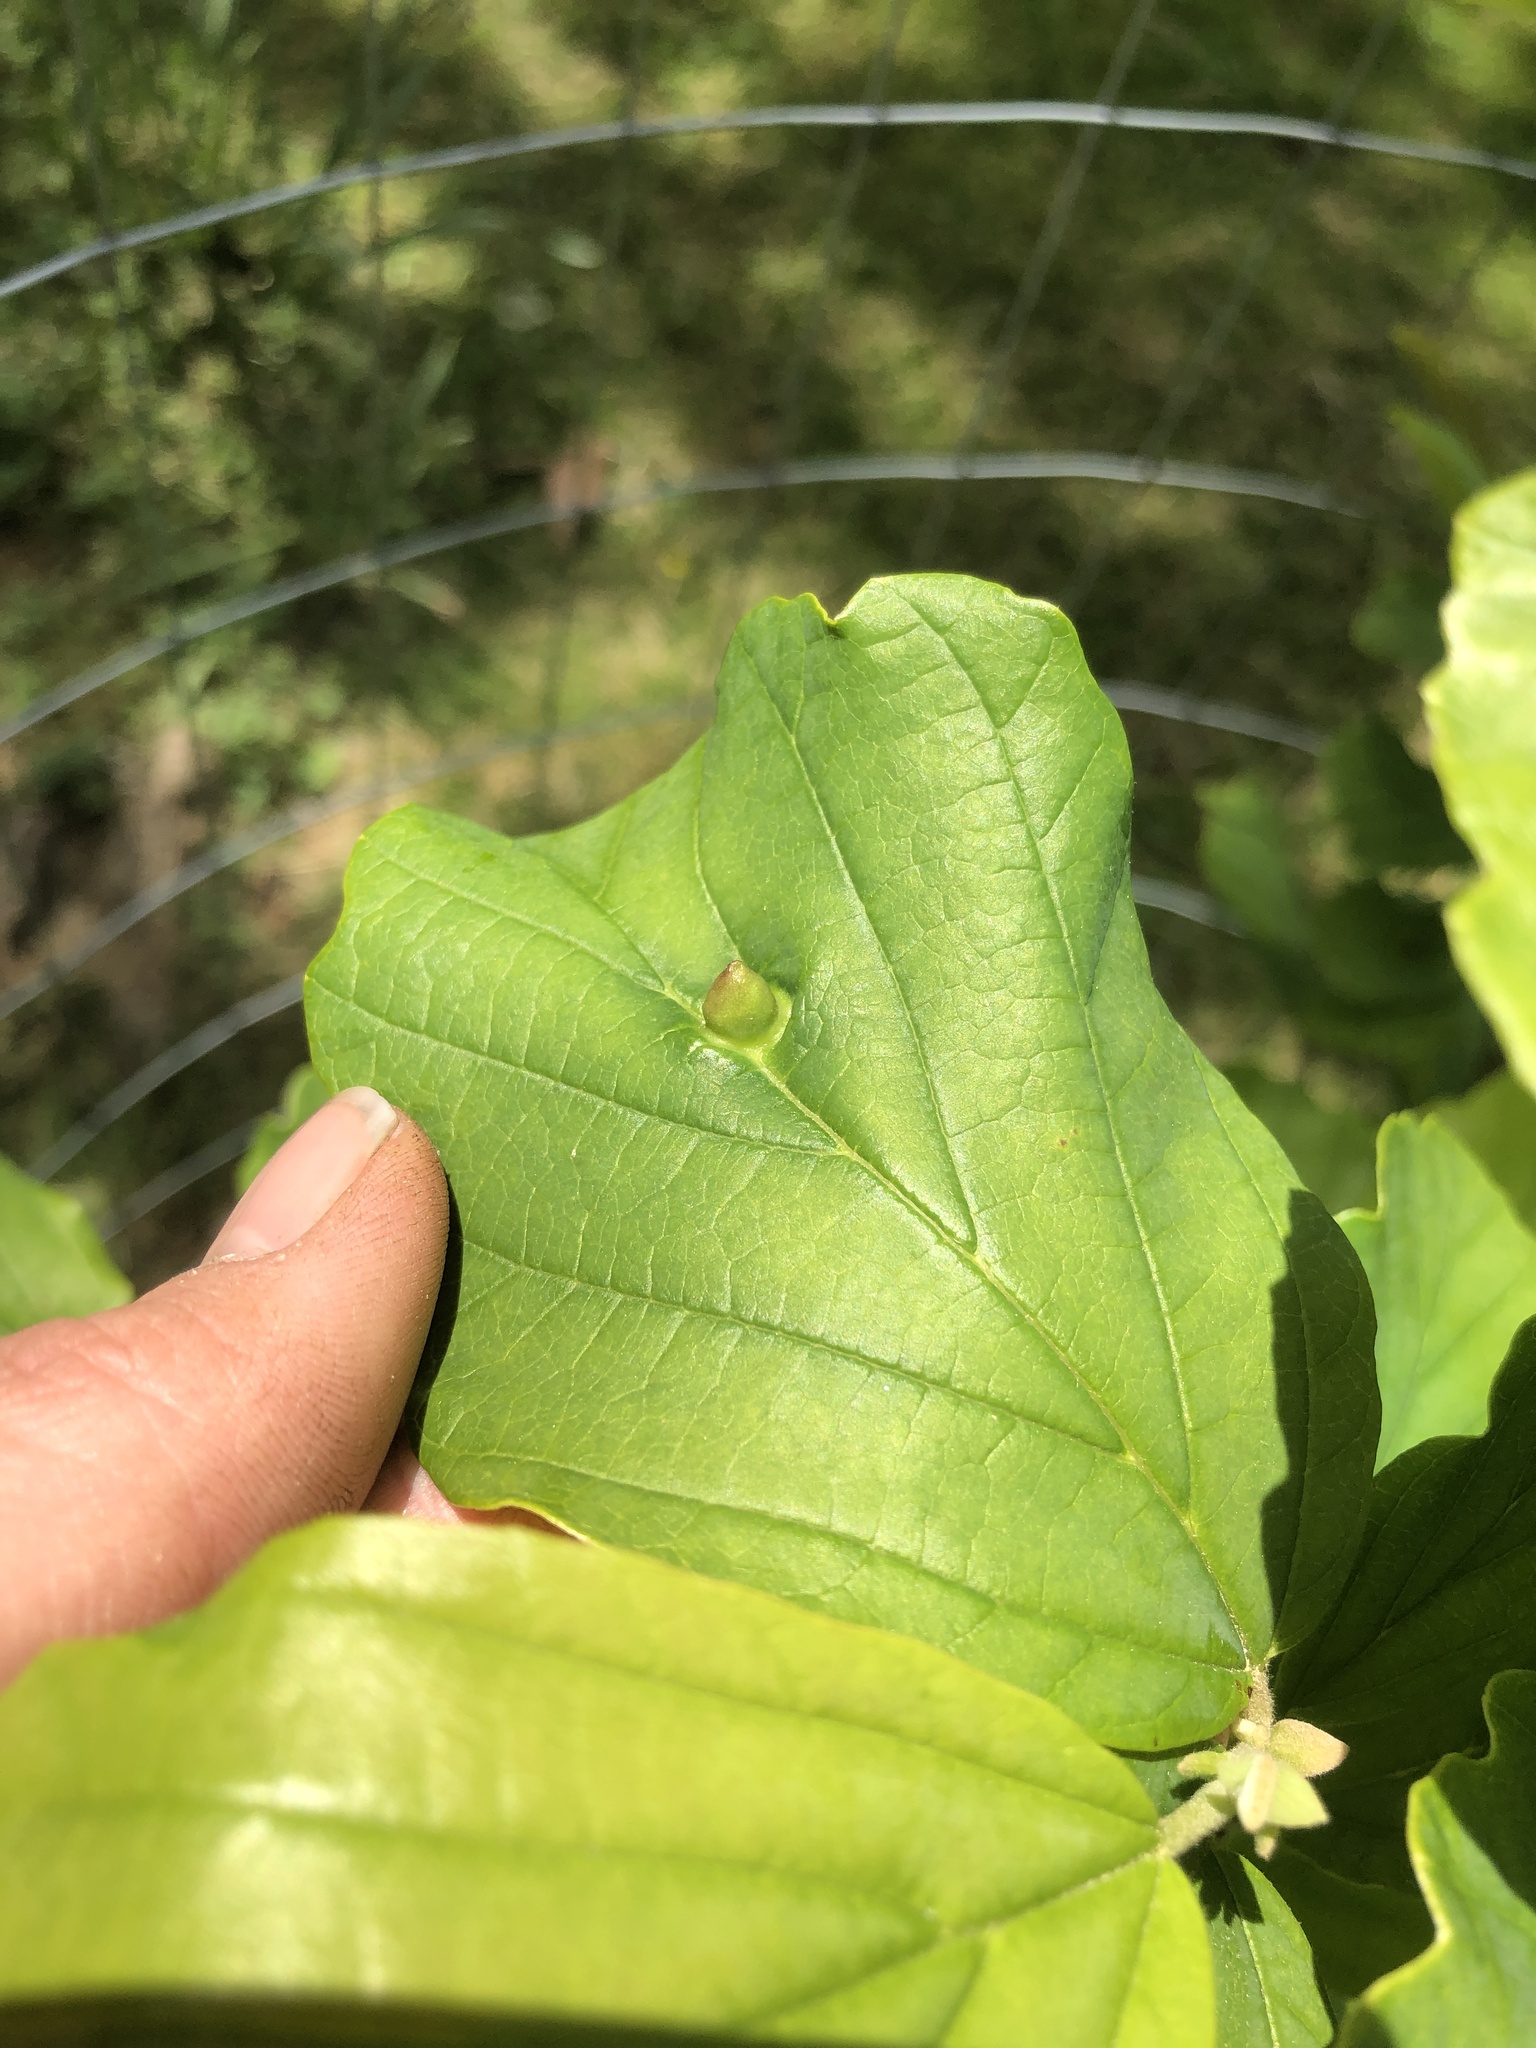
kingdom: Animalia
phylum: Arthropoda
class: Insecta
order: Hemiptera
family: Aphididae
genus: Hormaphis
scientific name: Hormaphis hamamelidis
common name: Witch-hazel cone gall aphid
